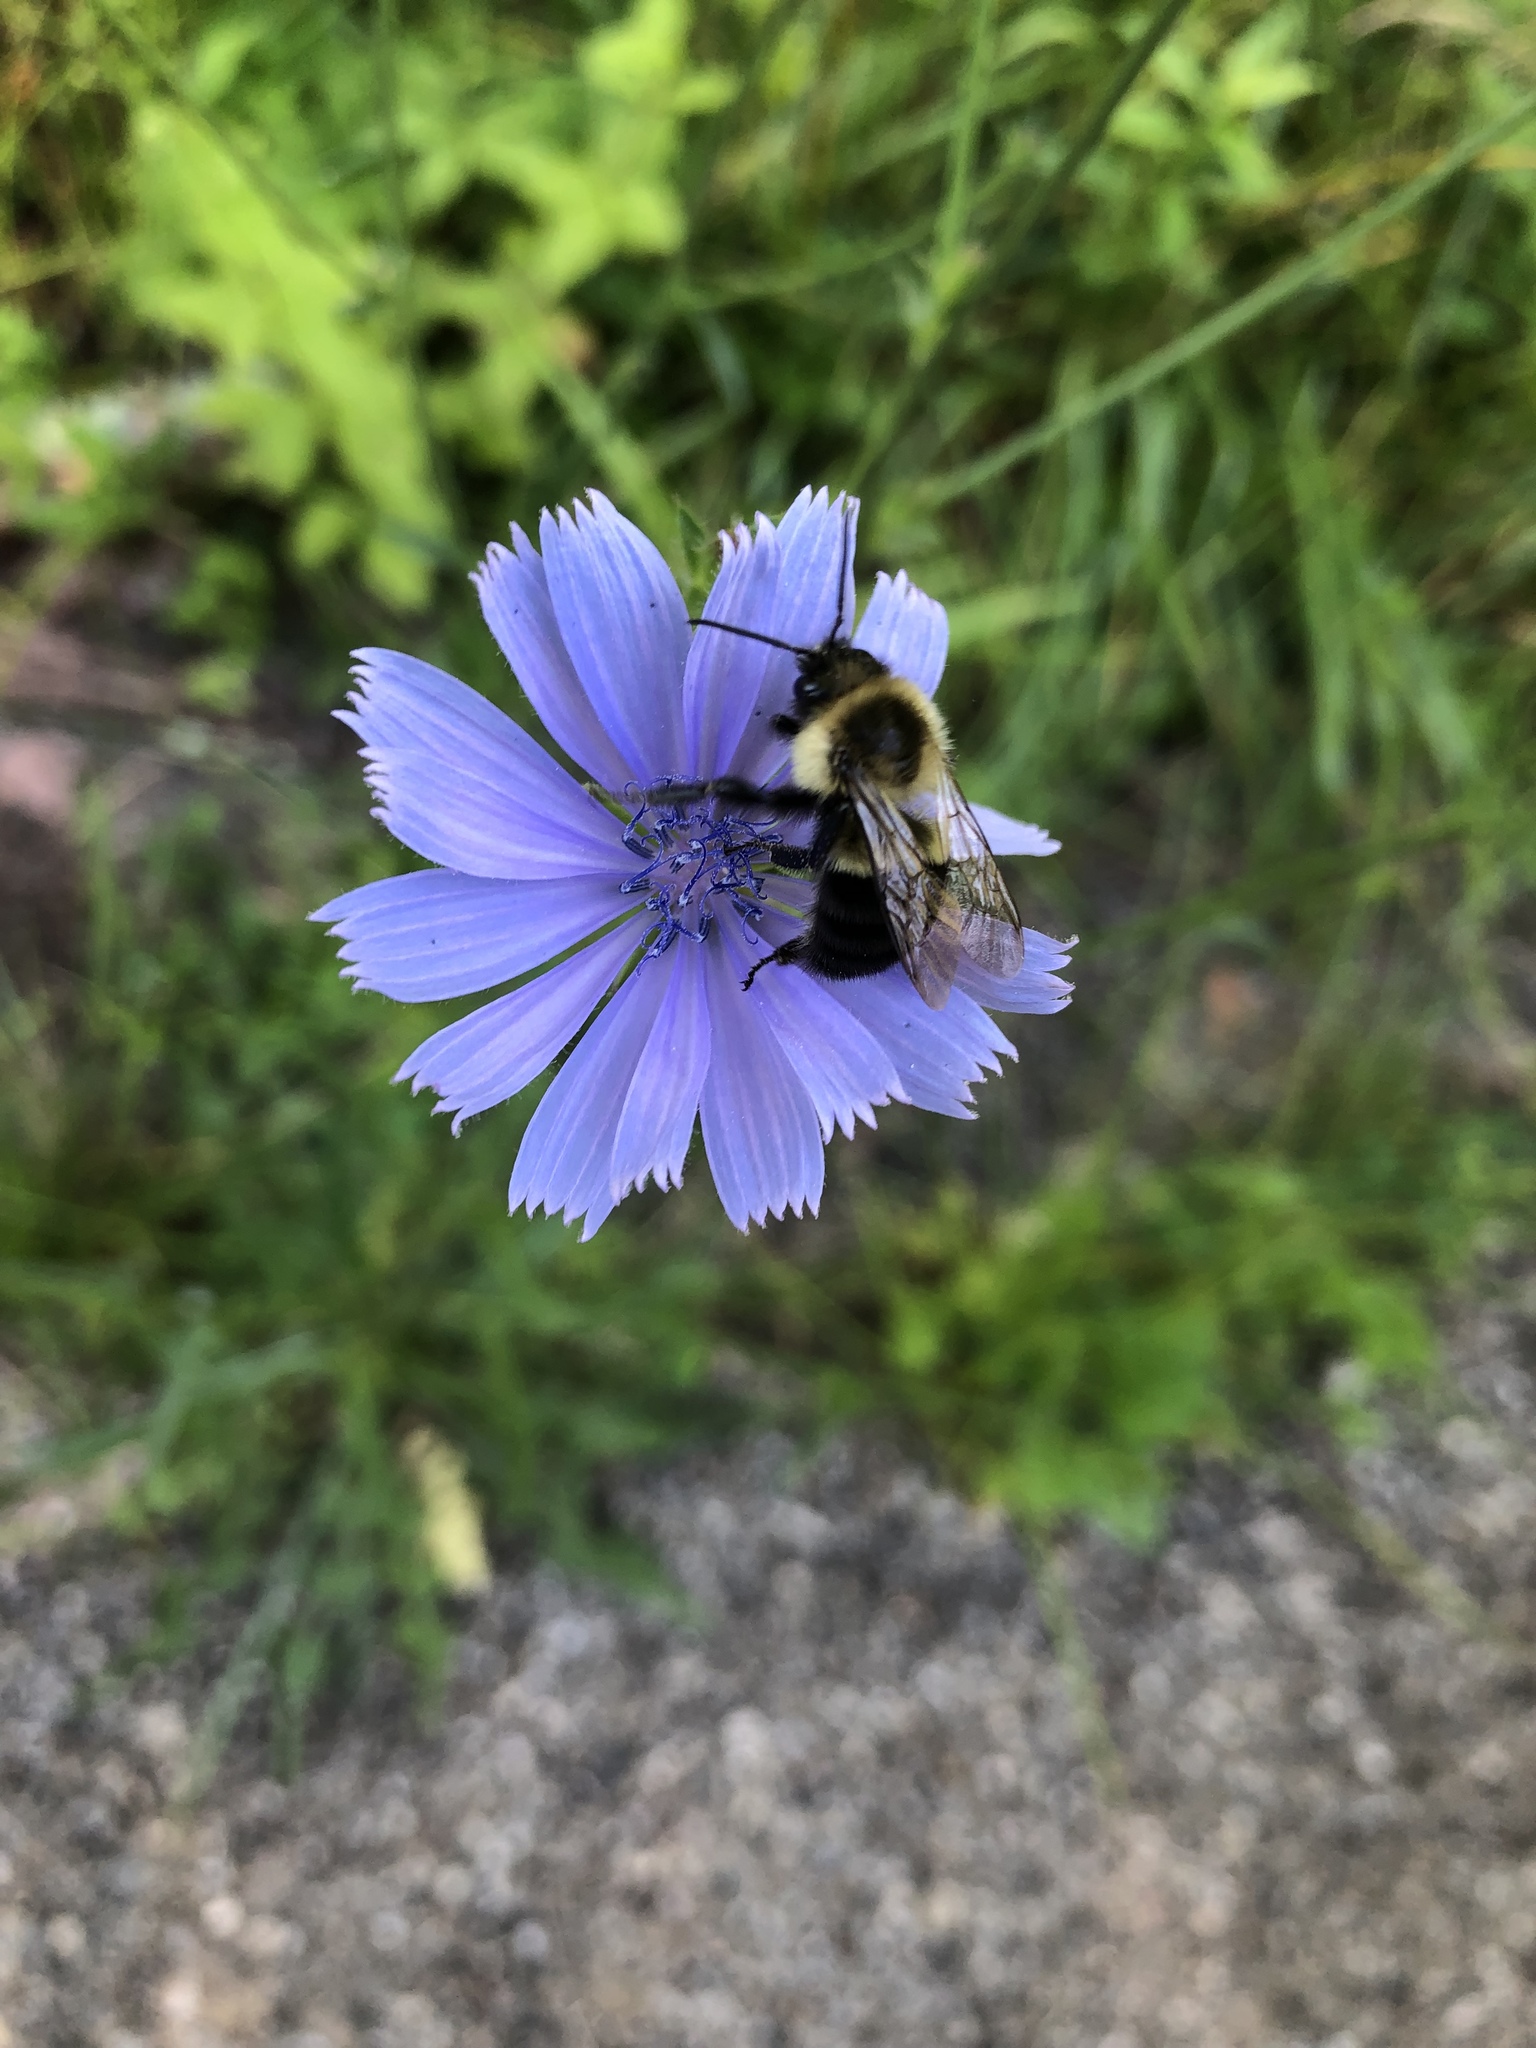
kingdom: Animalia
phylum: Arthropoda
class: Insecta
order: Hymenoptera
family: Apidae
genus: Bombus
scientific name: Bombus impatiens
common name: Common eastern bumble bee
